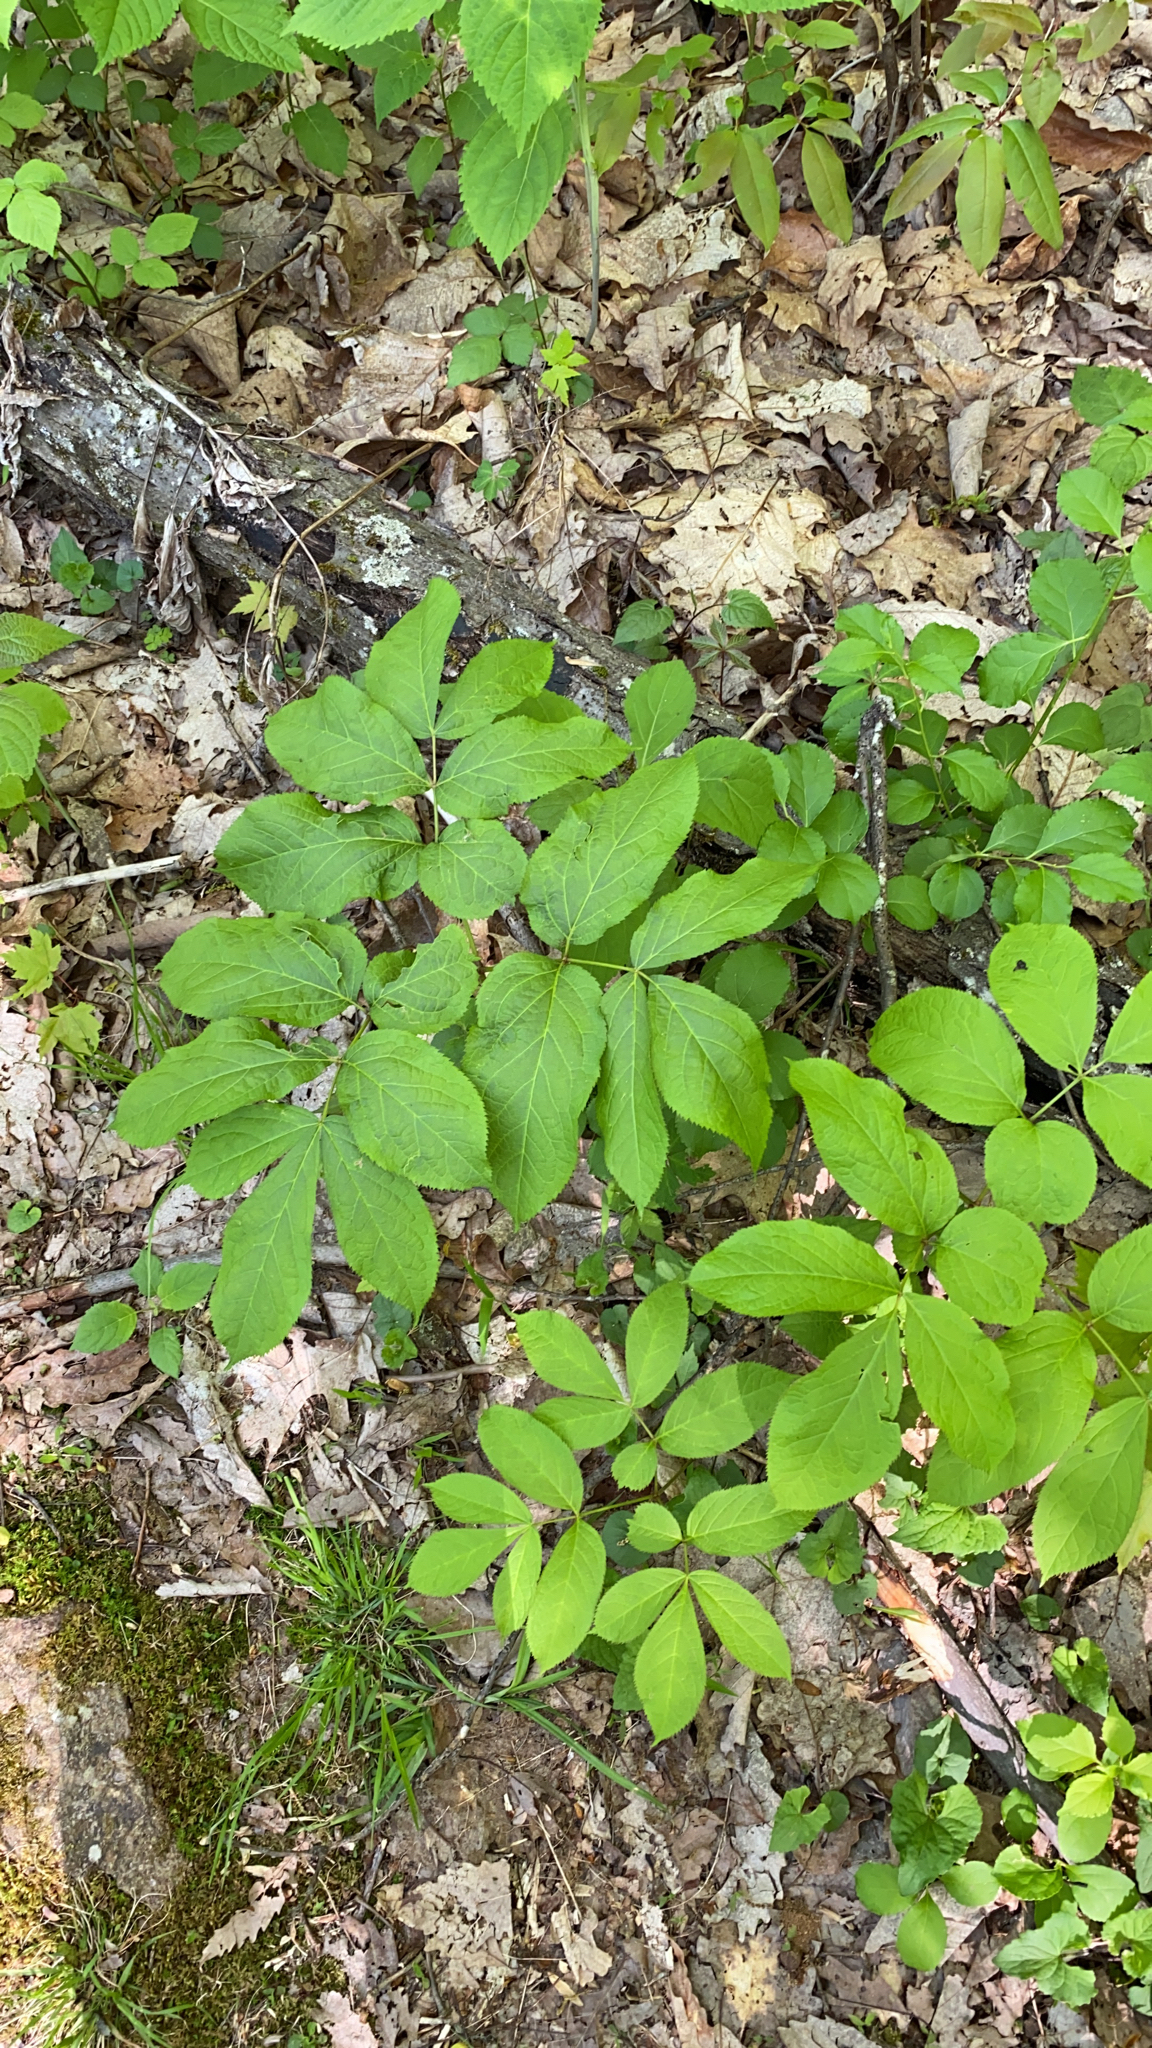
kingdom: Plantae
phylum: Tracheophyta
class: Magnoliopsida
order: Apiales
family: Araliaceae
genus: Aralia
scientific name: Aralia nudicaulis
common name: Wild sarsaparilla
